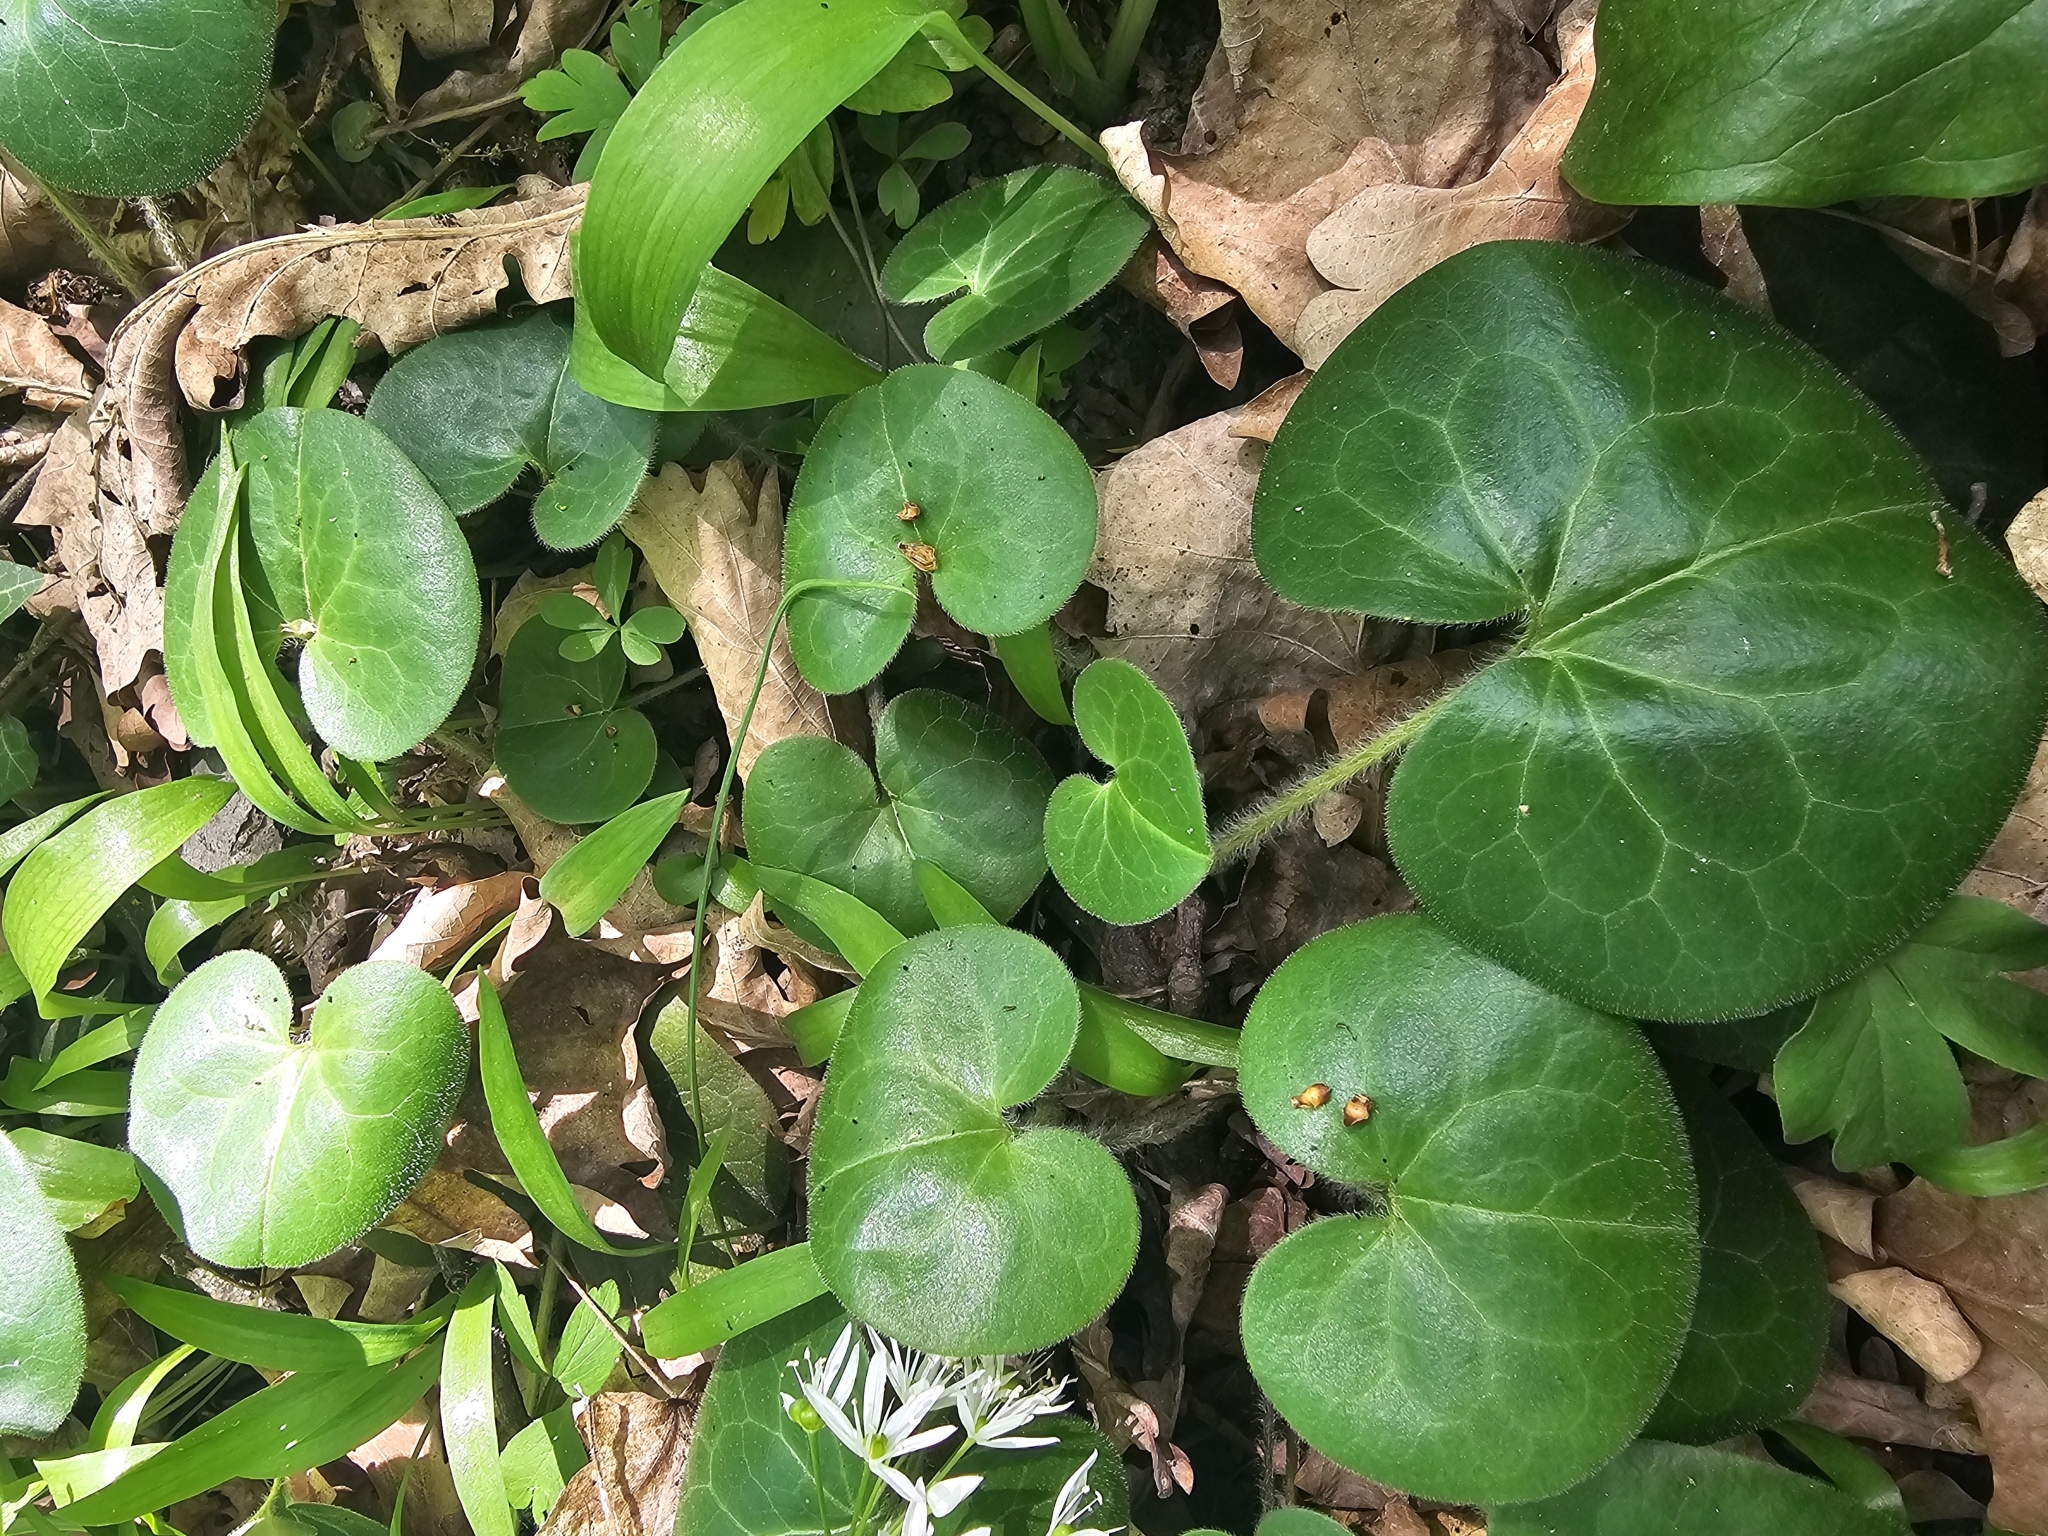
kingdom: Plantae
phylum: Tracheophyta
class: Magnoliopsida
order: Piperales
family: Aristolochiaceae
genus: Asarum
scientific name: Asarum europaeum
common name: Asarabacca
